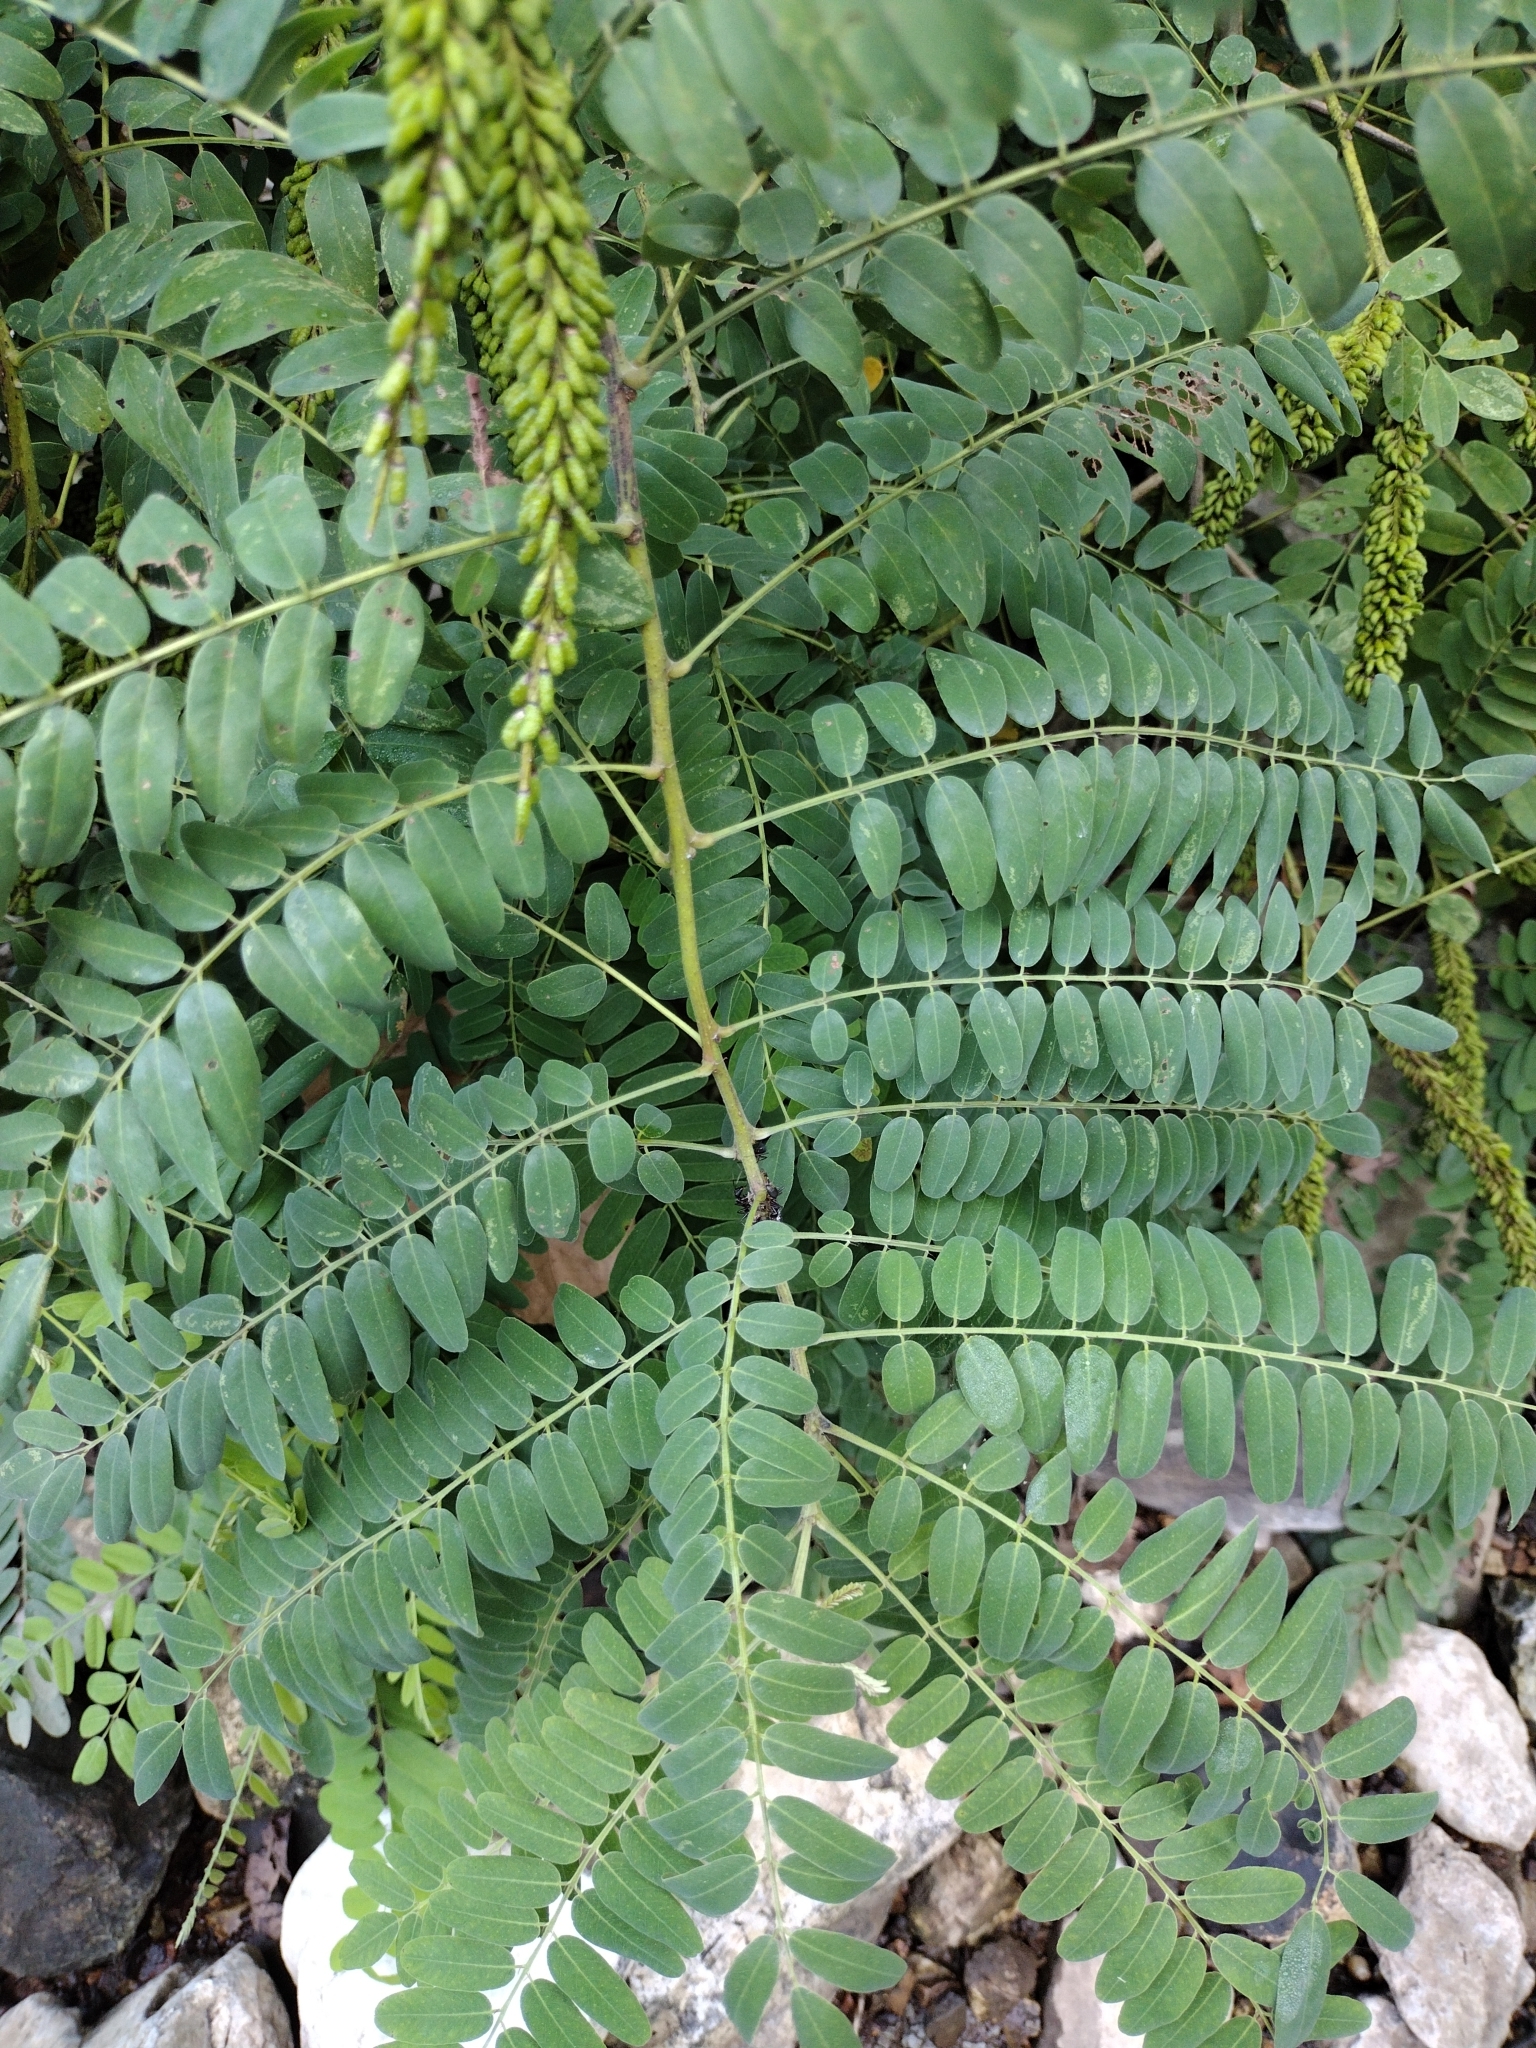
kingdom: Plantae
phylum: Tracheophyta
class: Magnoliopsida
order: Fabales
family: Fabaceae
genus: Amorpha
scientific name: Amorpha fruticosa
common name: False indigo
